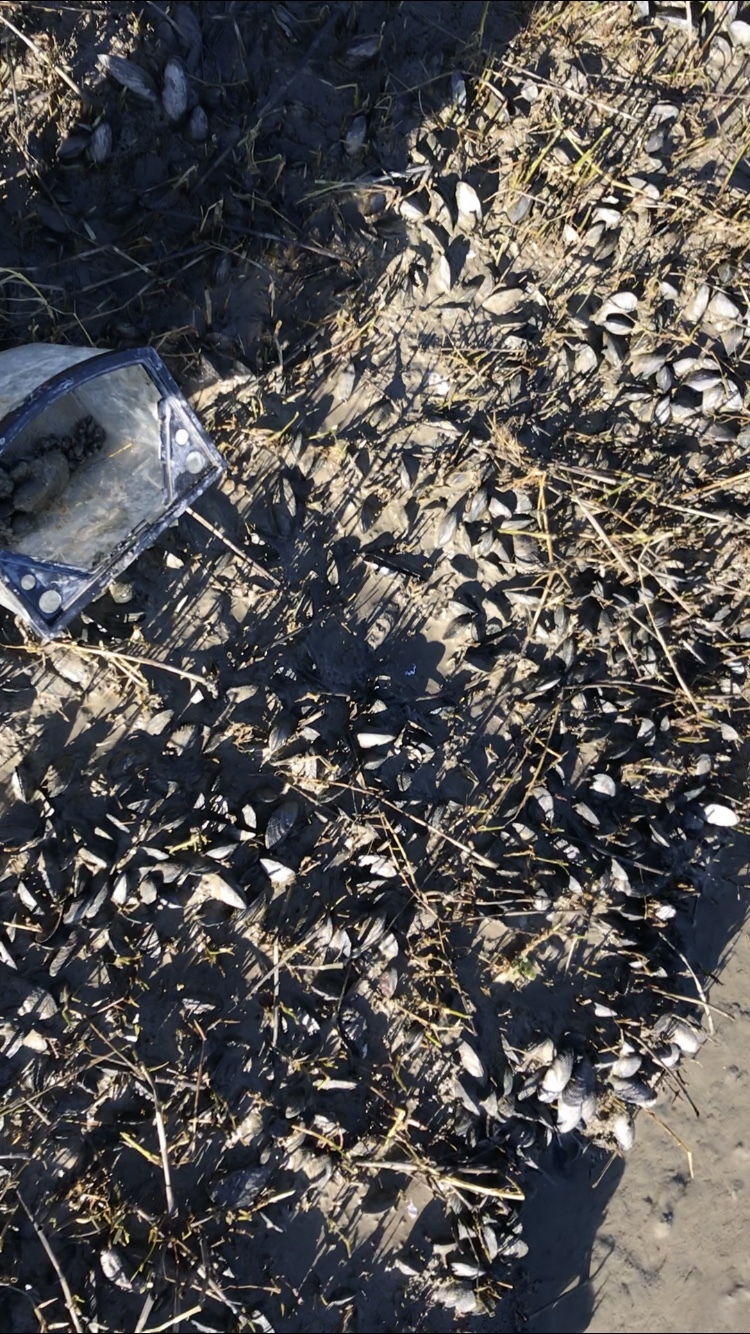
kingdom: Animalia
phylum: Mollusca
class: Bivalvia
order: Mytilida
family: Mytilidae
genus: Geukensia
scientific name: Geukensia demissa
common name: Ribbed mussel
